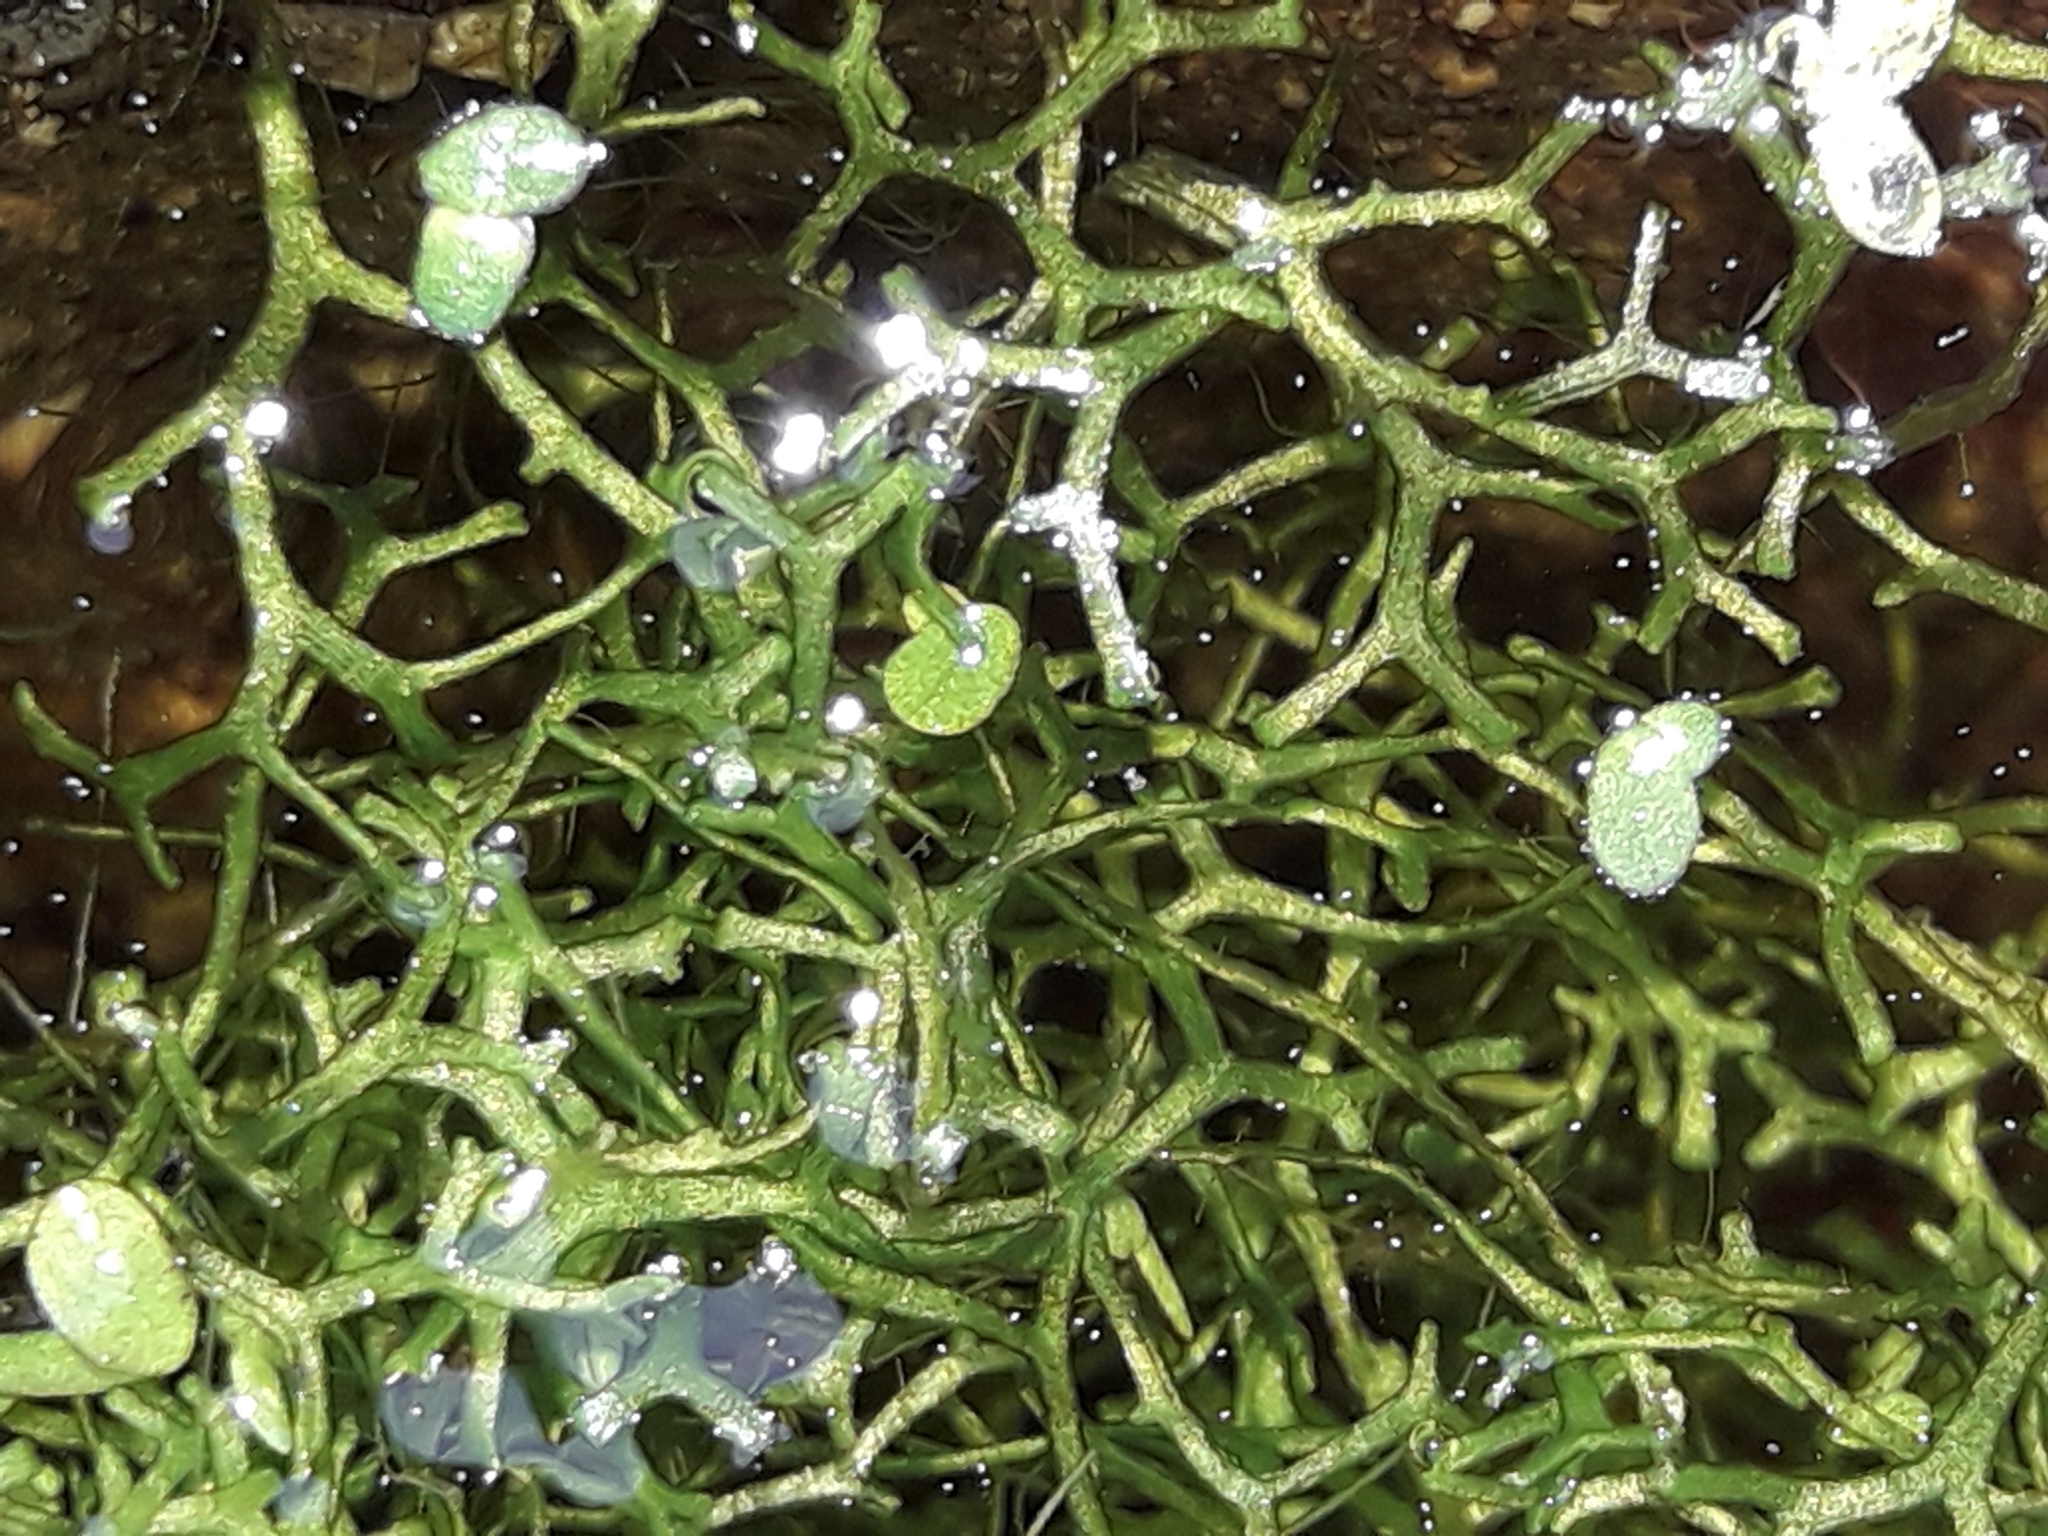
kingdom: Plantae
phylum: Marchantiophyta
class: Marchantiopsida
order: Marchantiales
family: Ricciaceae
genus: Riccia
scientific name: Riccia fluitans
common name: Floating crystalwort
